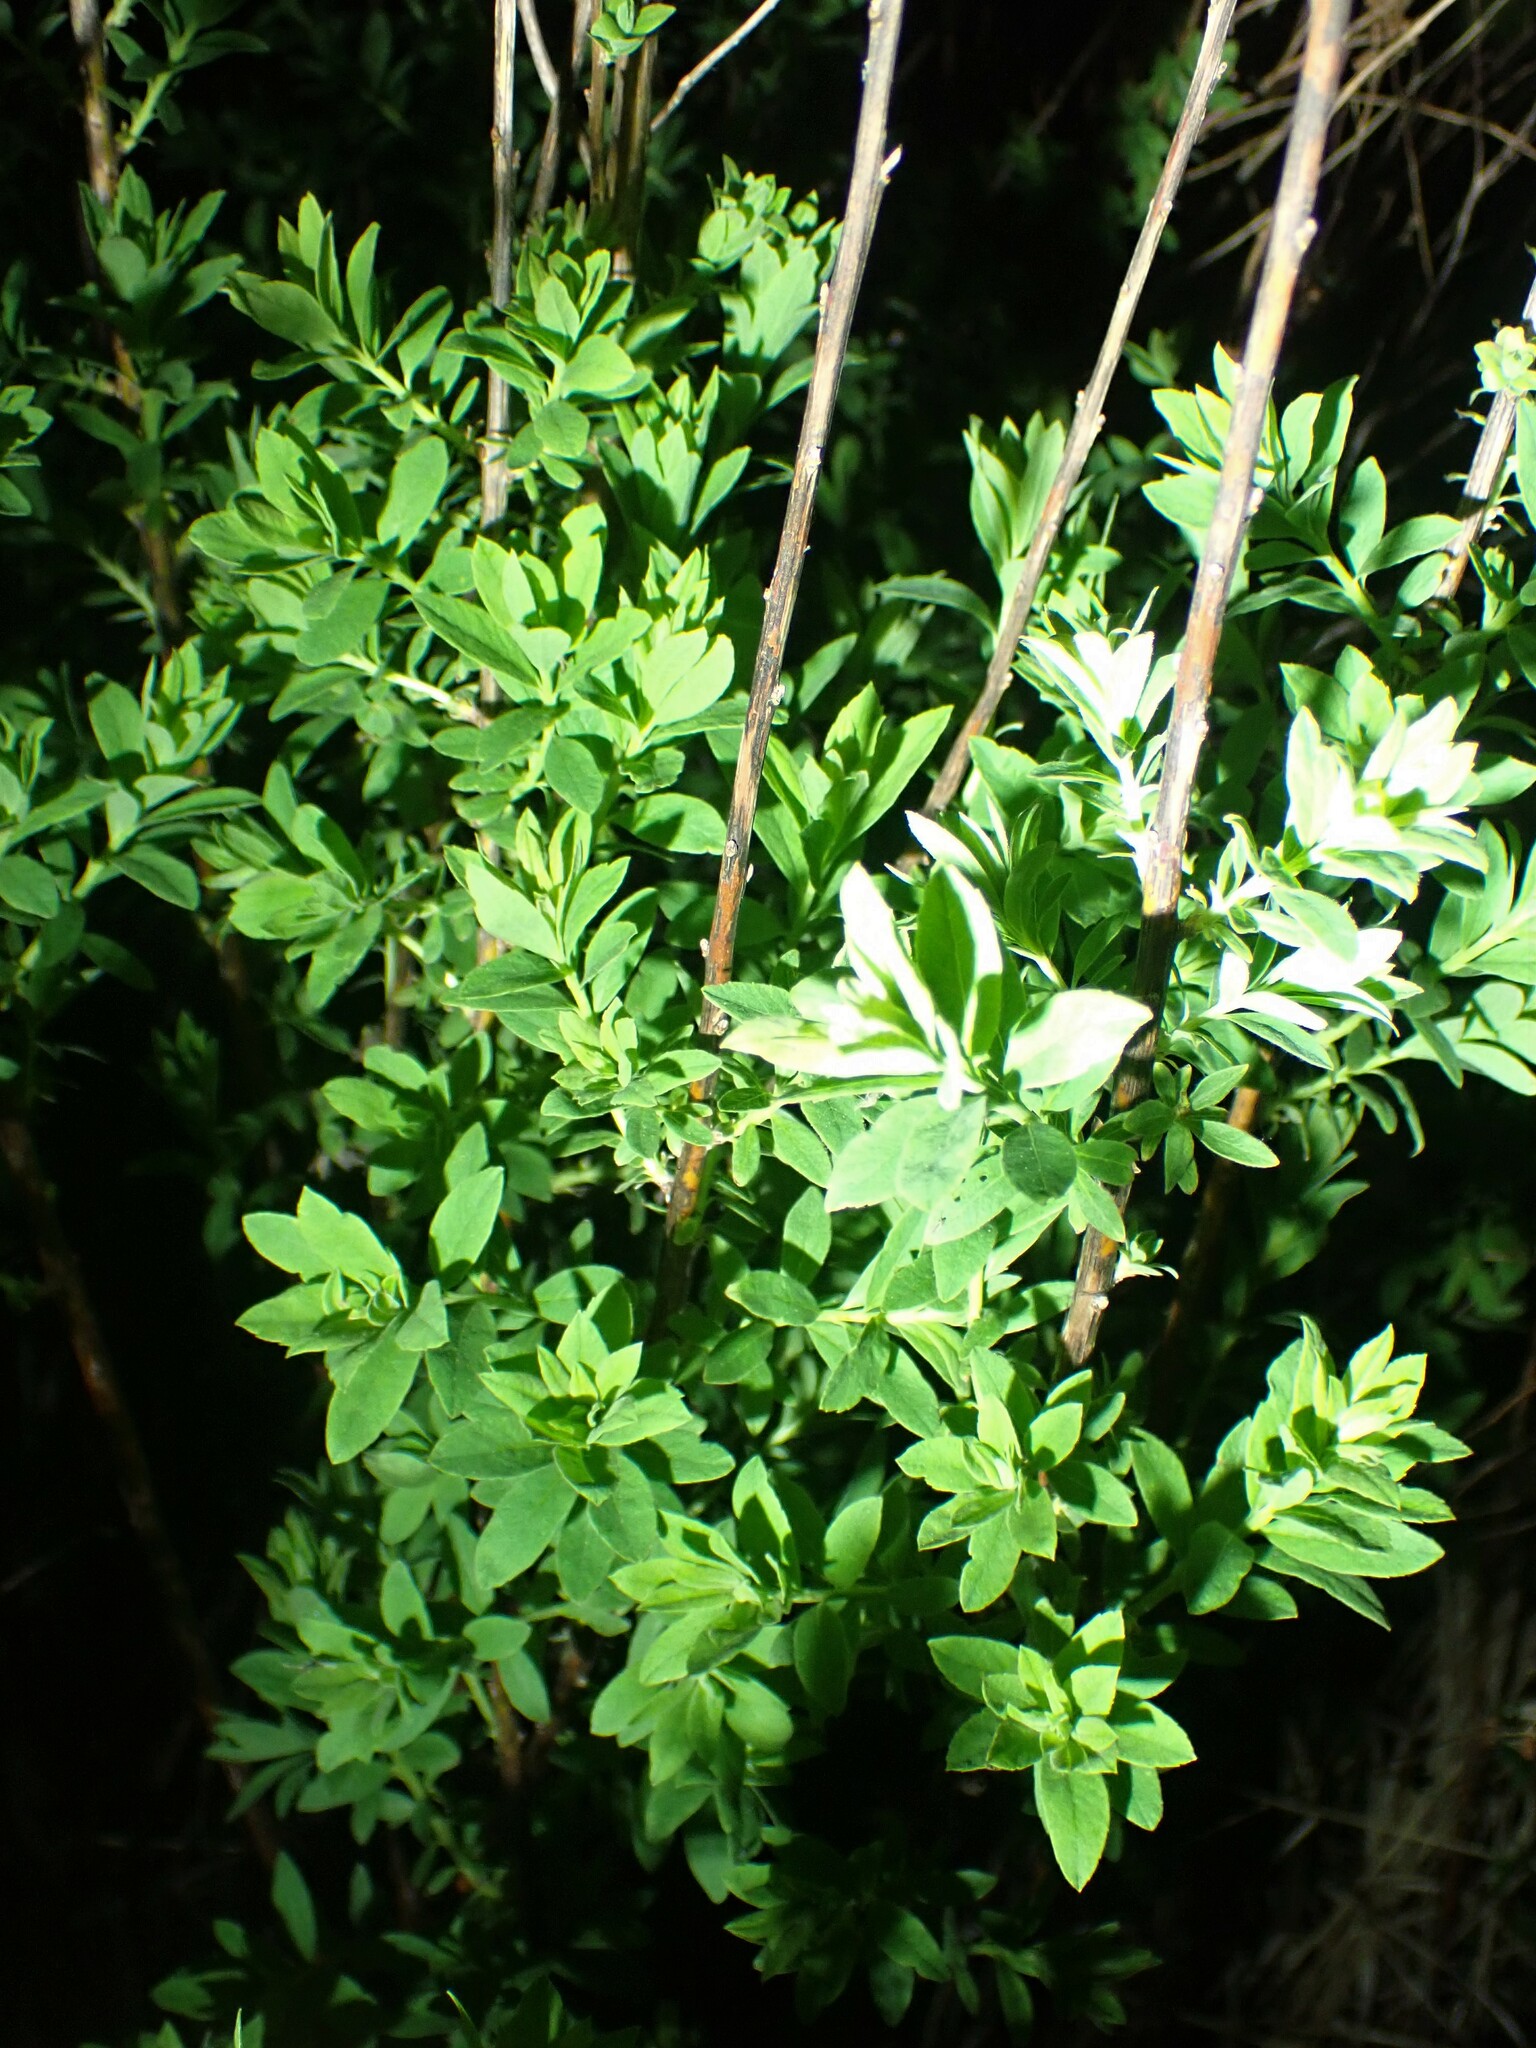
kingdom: Plantae
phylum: Tracheophyta
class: Magnoliopsida
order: Rosales
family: Rosaceae
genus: Spiraea
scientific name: Spiraea alba
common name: Pale bridewort
